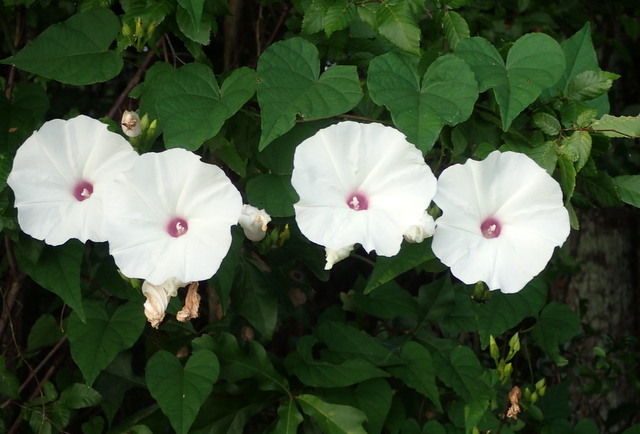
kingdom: Plantae
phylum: Tracheophyta
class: Magnoliopsida
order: Solanales
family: Convolvulaceae
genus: Ipomoea
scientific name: Ipomoea pandurata
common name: Man-of-the-earth
